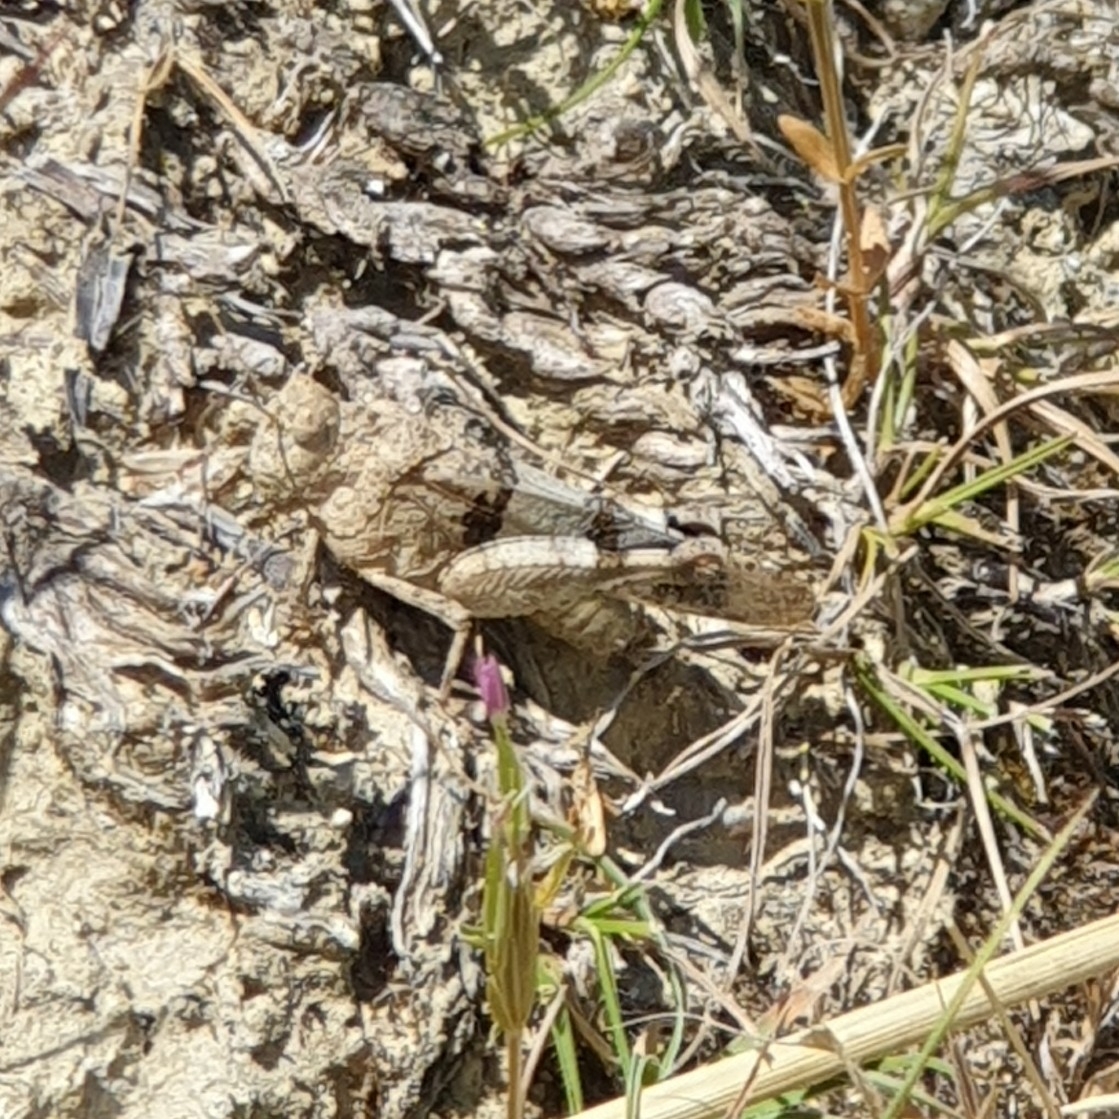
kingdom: Animalia
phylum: Arthropoda
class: Insecta
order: Orthoptera
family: Acrididae
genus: Oedipoda
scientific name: Oedipoda caerulescens
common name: Blue-winged grasshopper
